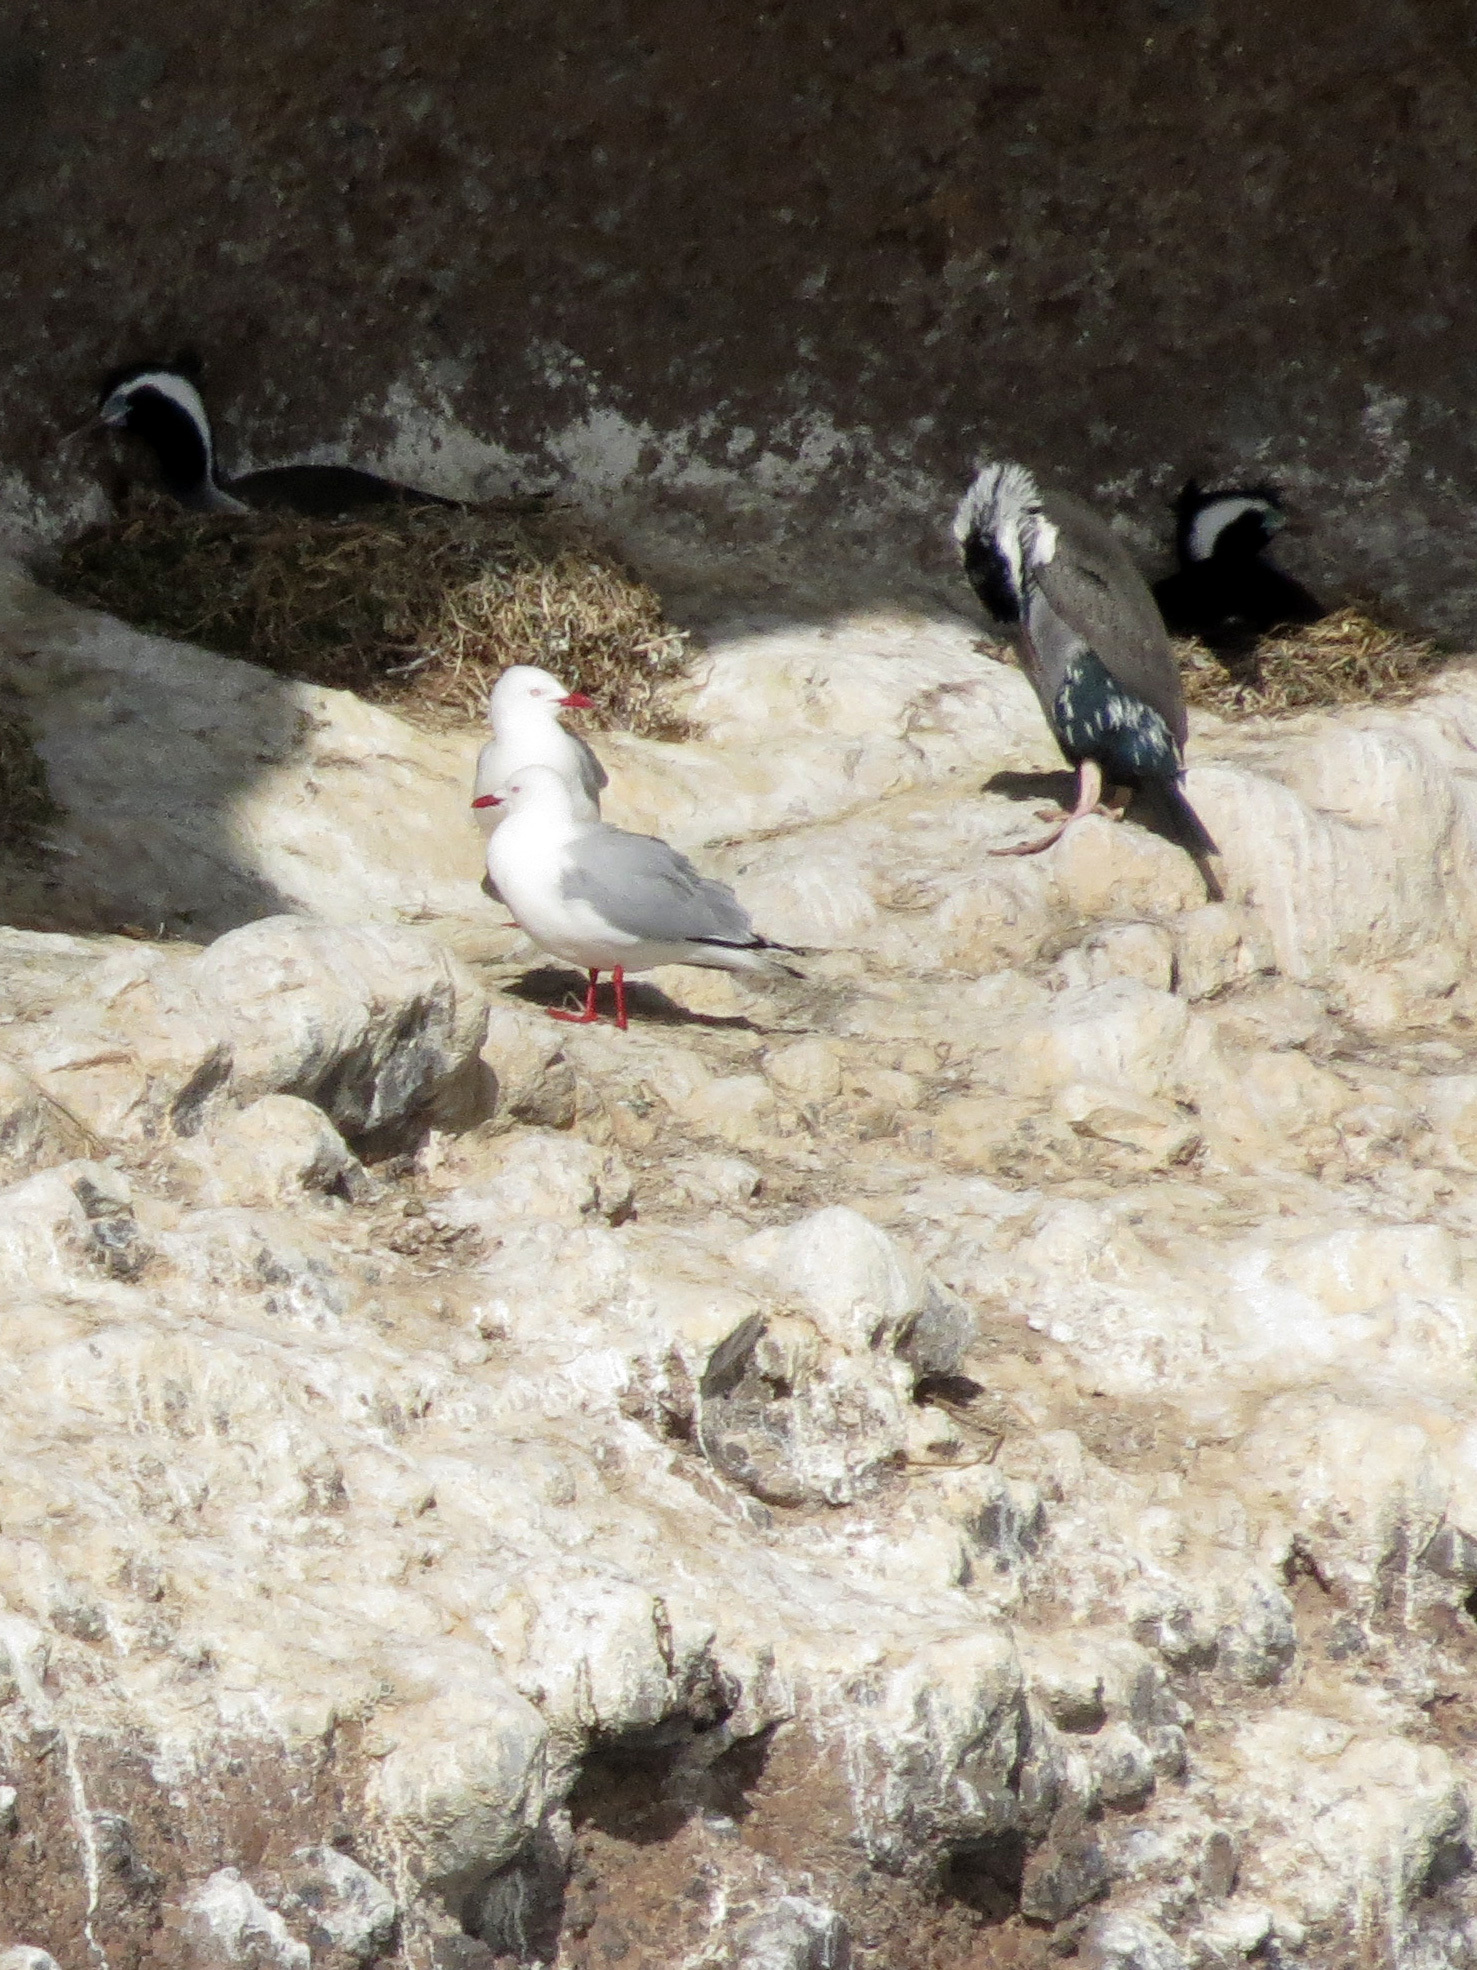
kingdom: Animalia
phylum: Chordata
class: Aves
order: Charadriiformes
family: Laridae
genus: Chroicocephalus
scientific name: Chroicocephalus novaehollandiae
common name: Silver gull
